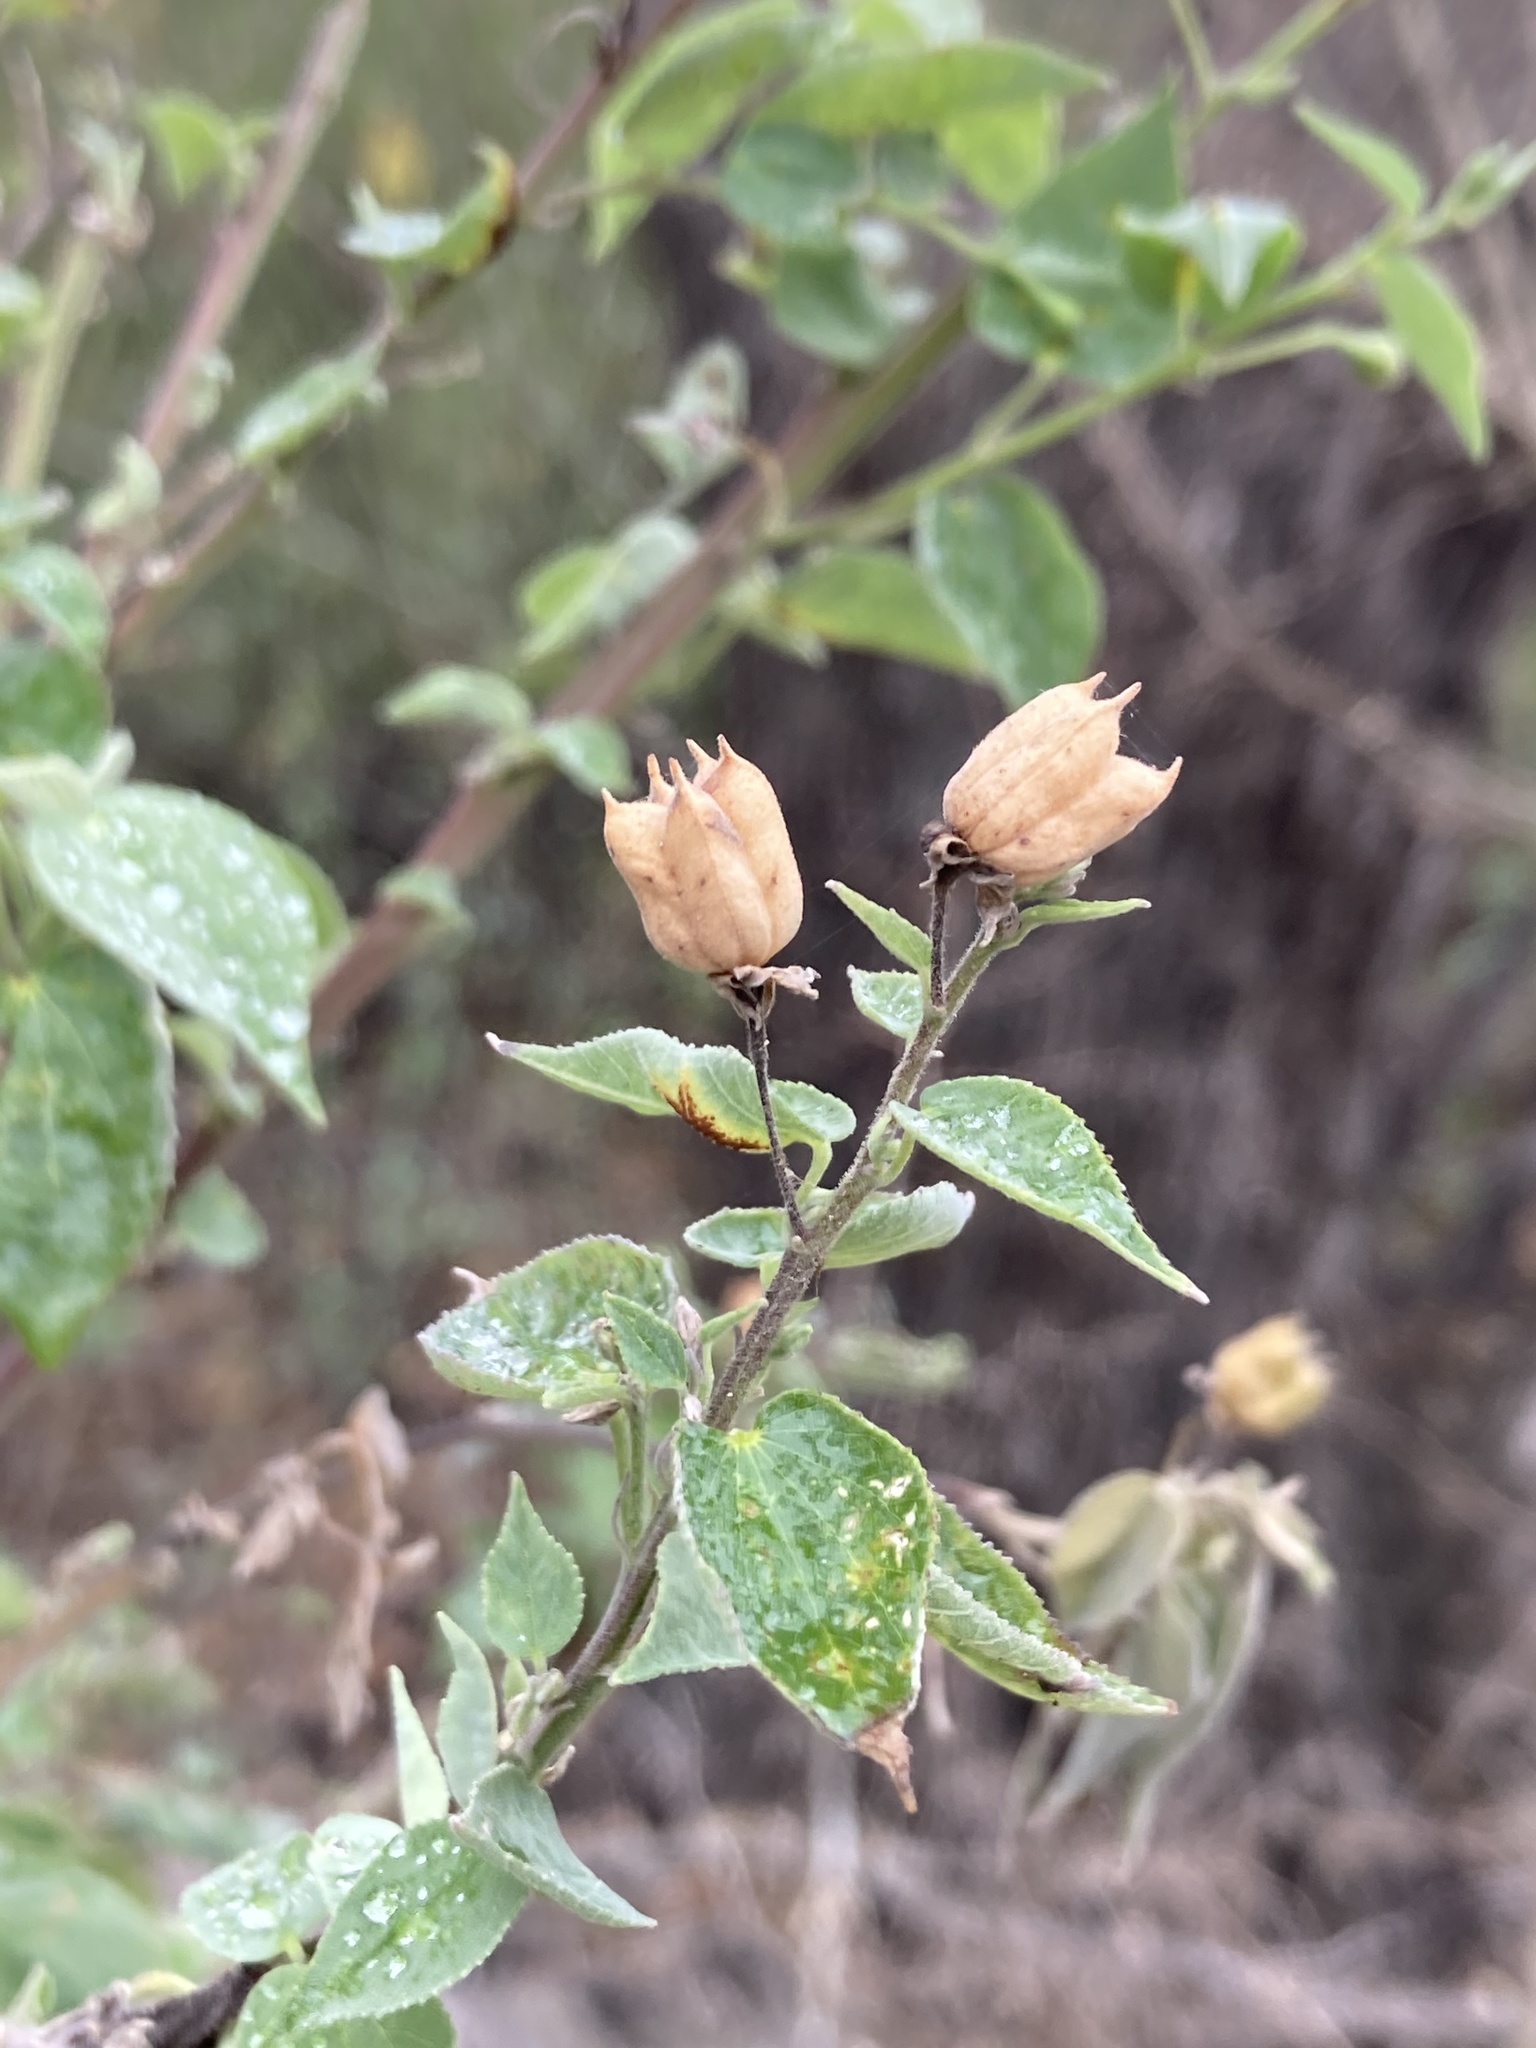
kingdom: Plantae
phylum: Tracheophyta
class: Magnoliopsida
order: Malvales
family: Malvaceae
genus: Abutilon
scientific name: Abutilon trisulcatum
